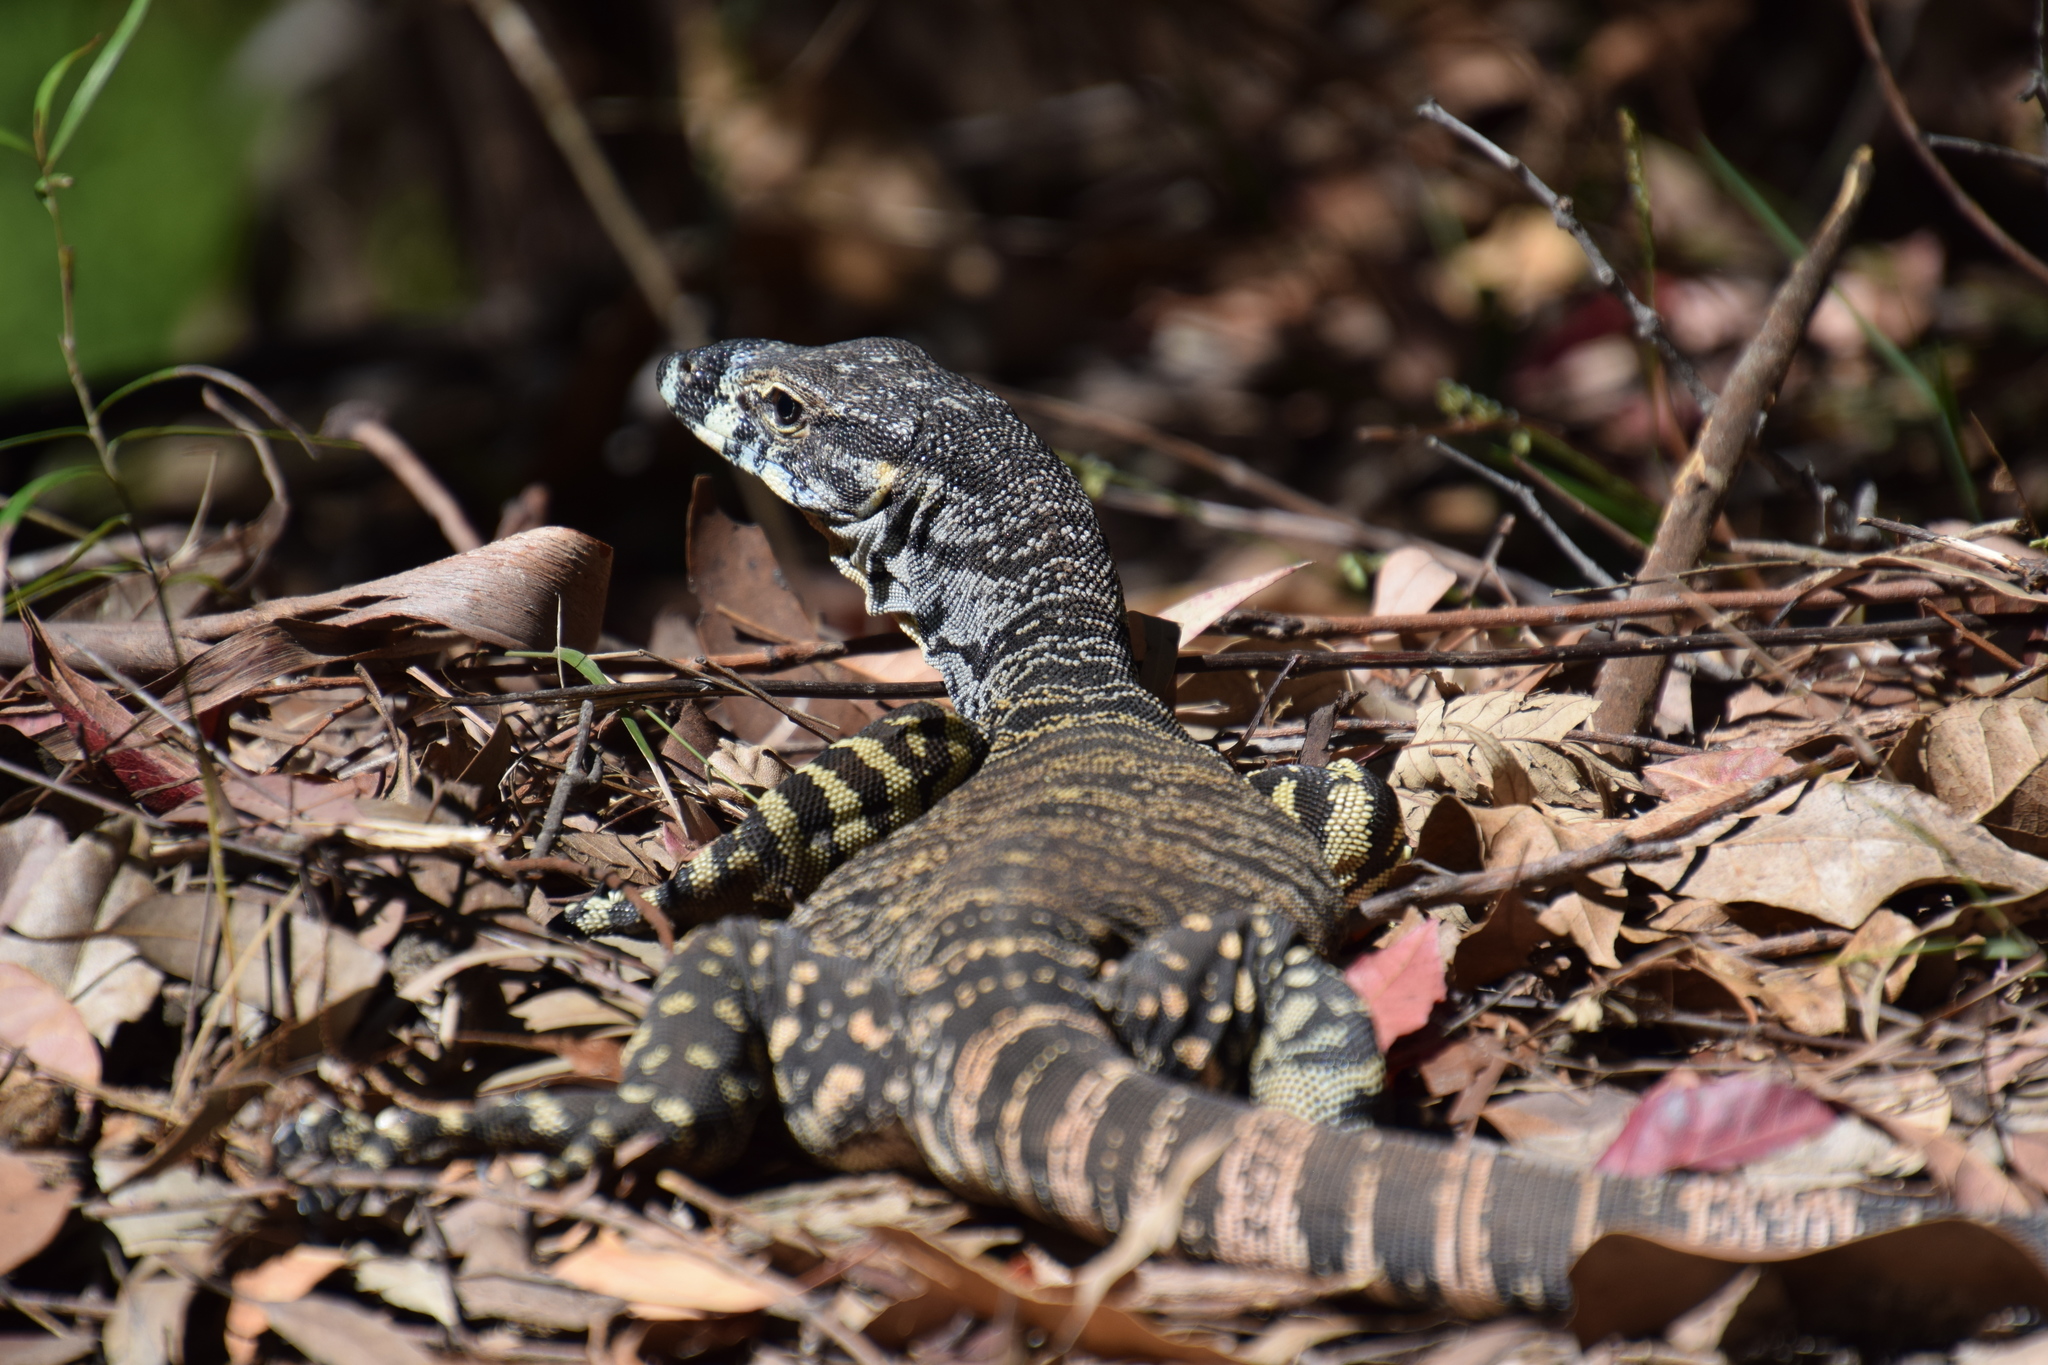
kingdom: Animalia
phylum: Chordata
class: Squamata
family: Varanidae
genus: Varanus
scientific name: Varanus varius
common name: Lace monitor
